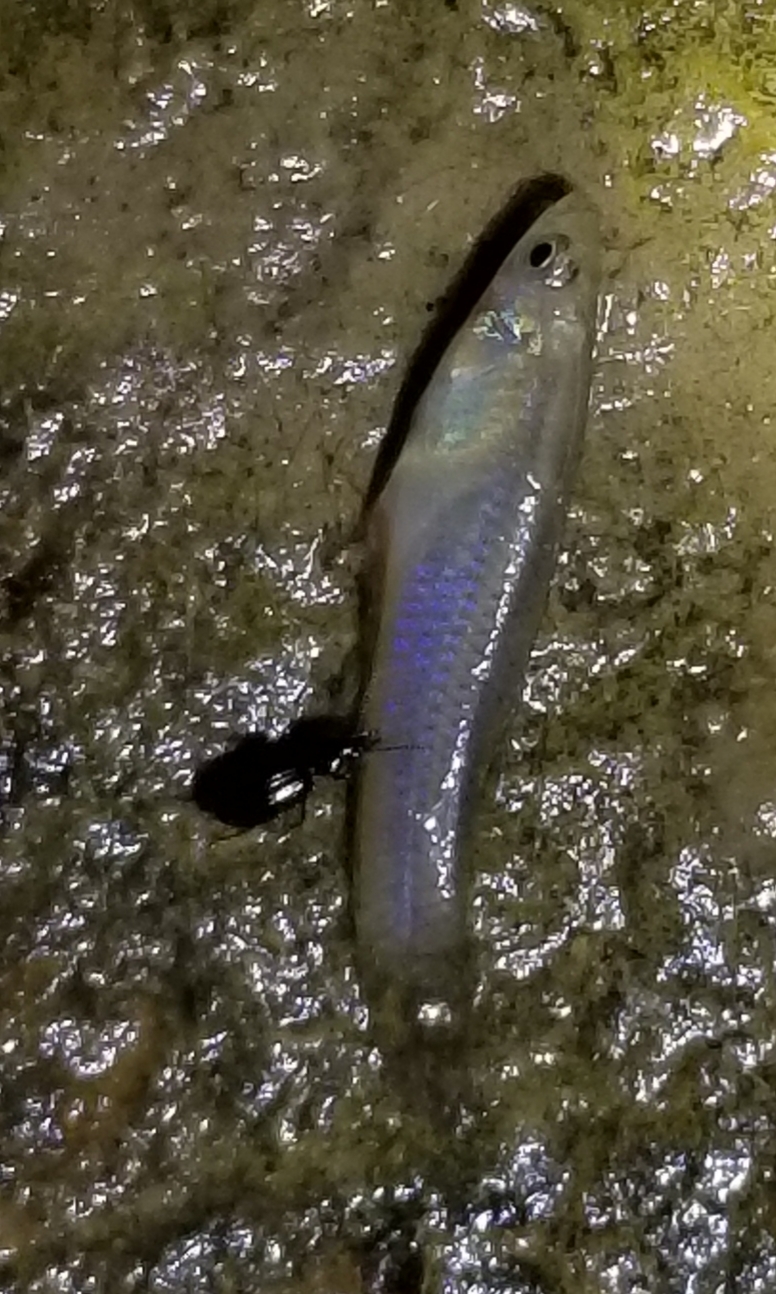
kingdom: Animalia
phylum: Chordata
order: Cyprinodontiformes
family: Poeciliidae
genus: Gambusia
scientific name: Gambusia affinis
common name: Mosquitofish
